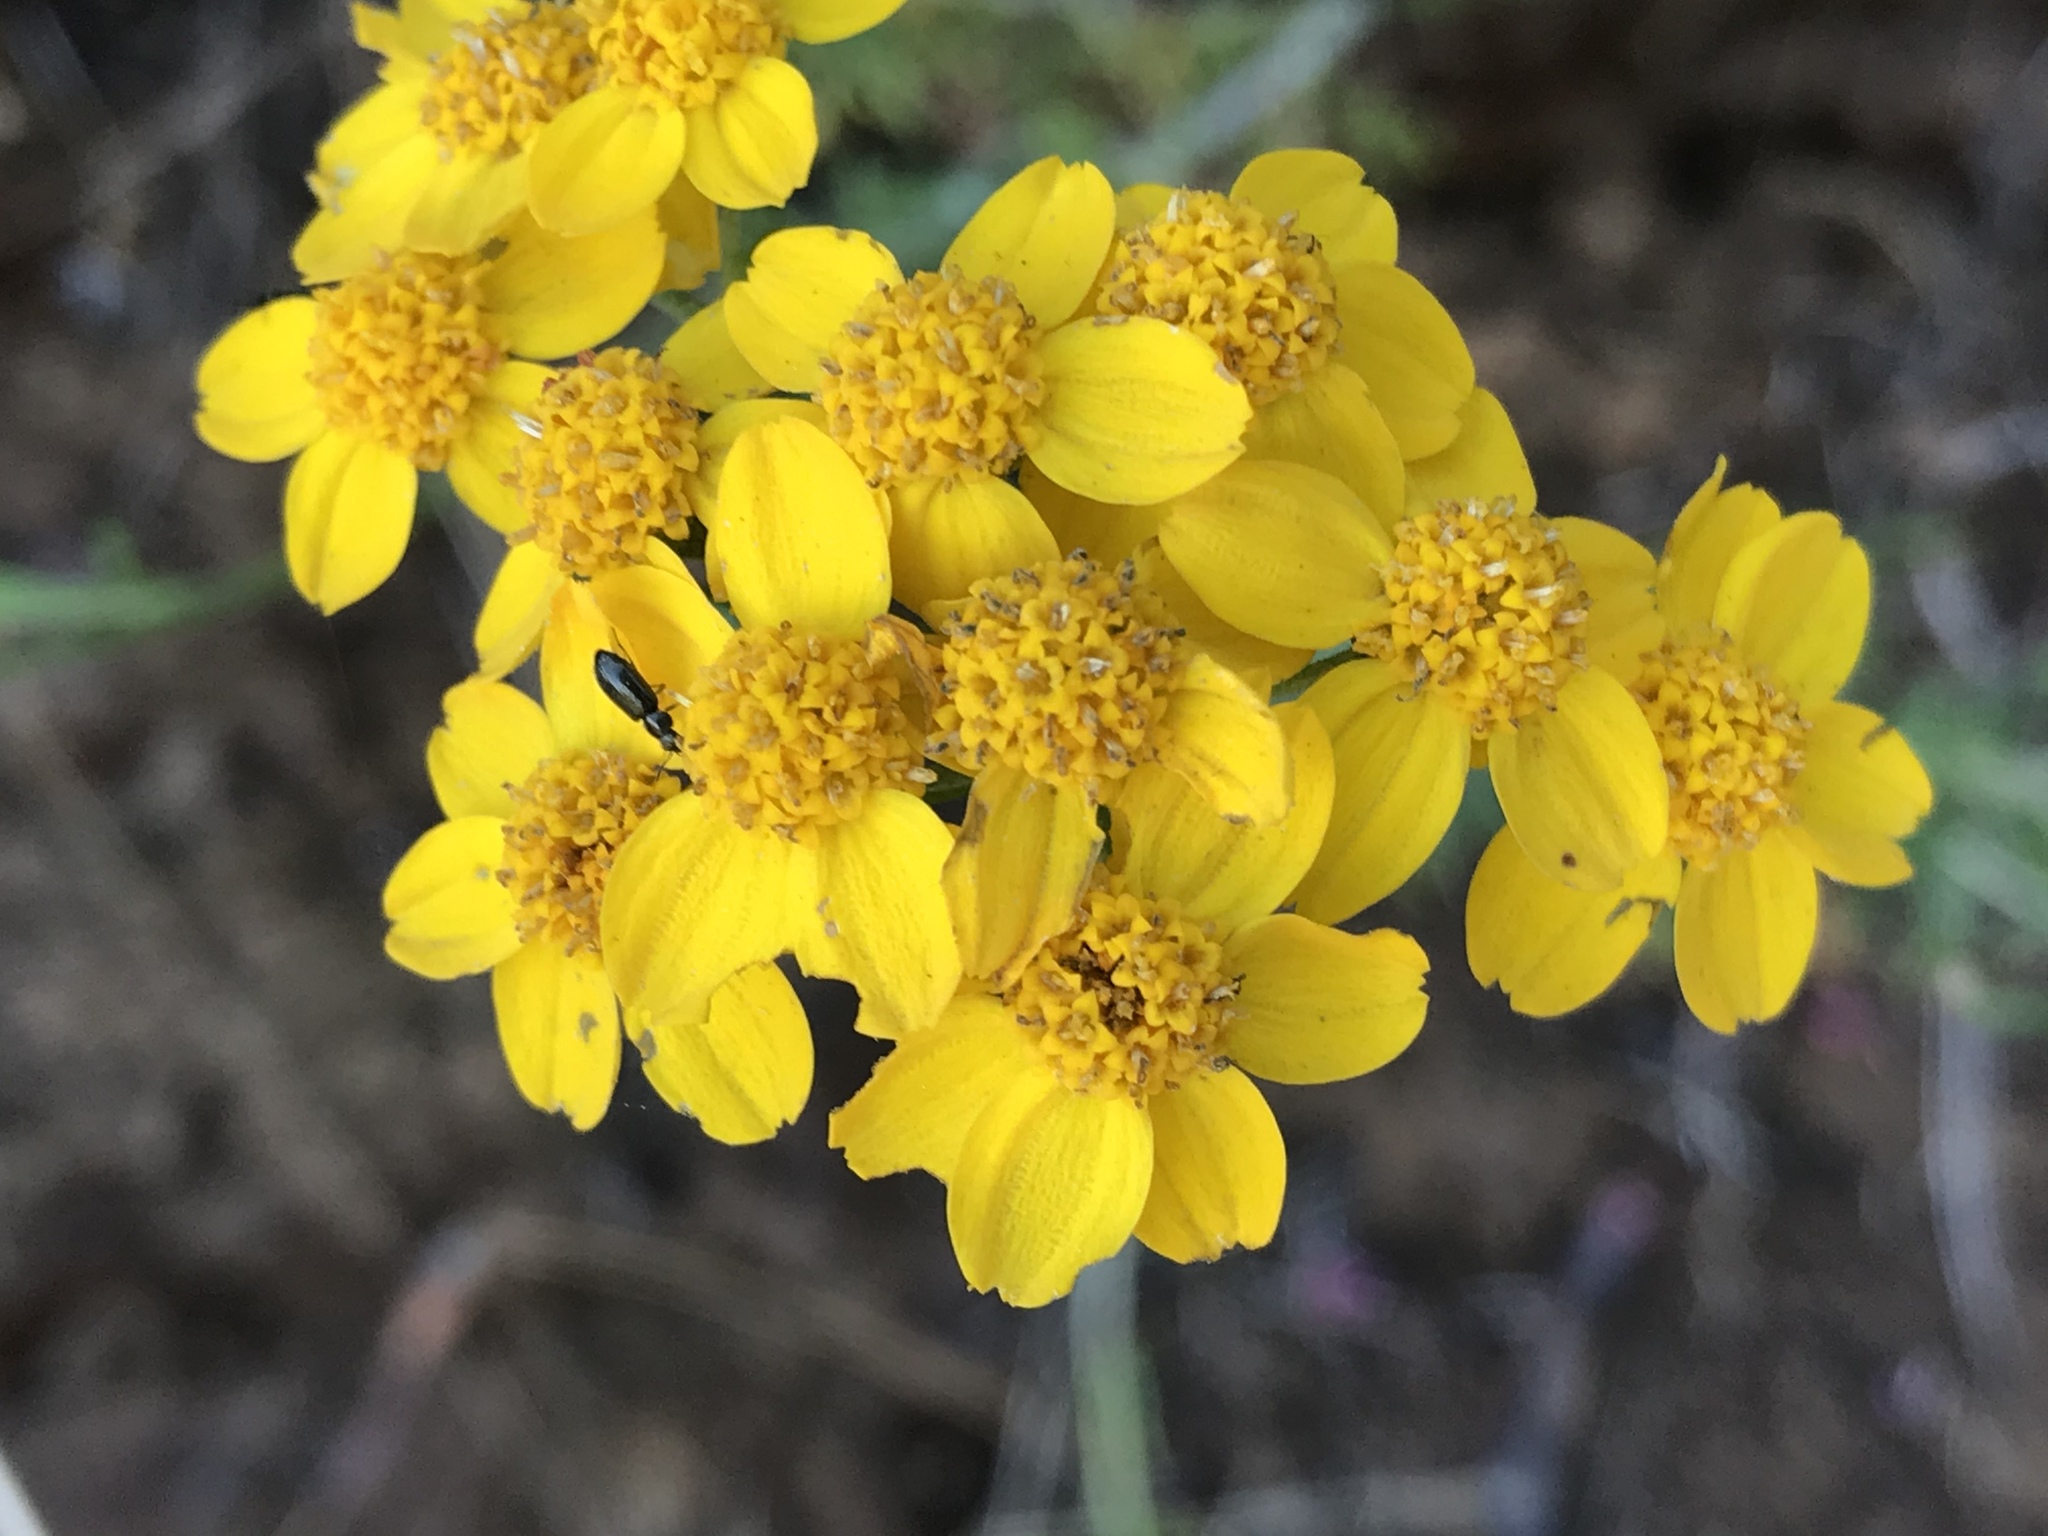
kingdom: Plantae
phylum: Tracheophyta
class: Magnoliopsida
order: Asterales
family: Asteraceae
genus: Eriophyllum
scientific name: Eriophyllum confertiflorum
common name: Golden-yarrow
